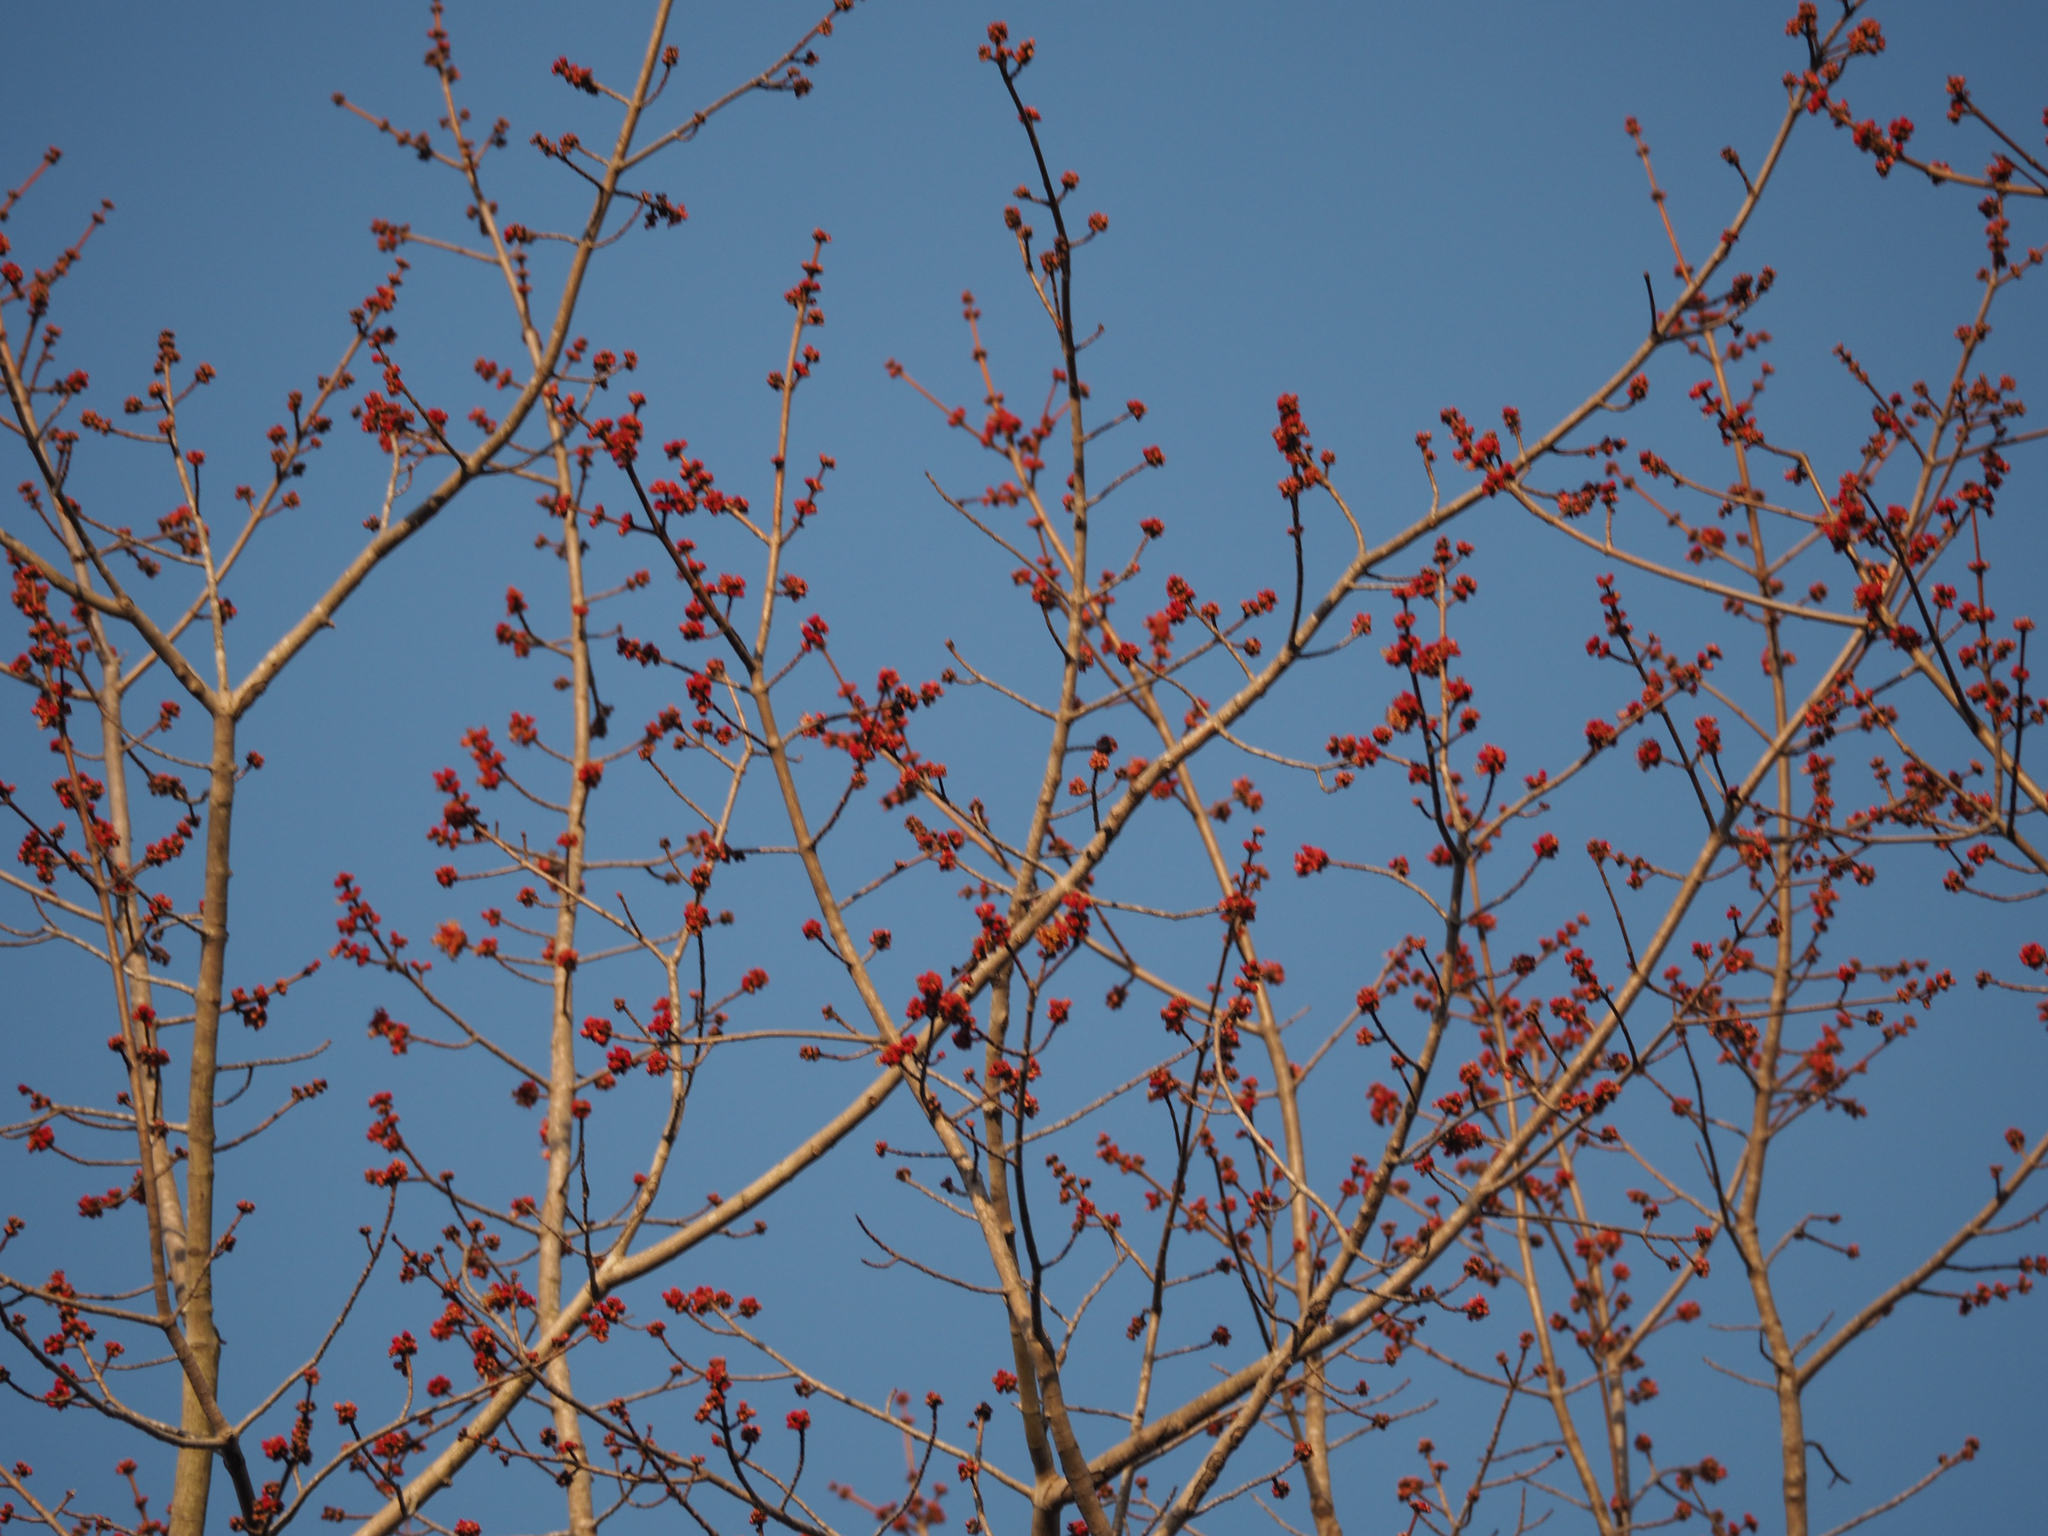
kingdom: Plantae
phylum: Tracheophyta
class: Magnoliopsida
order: Sapindales
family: Sapindaceae
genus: Acer
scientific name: Acer rubrum
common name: Red maple
